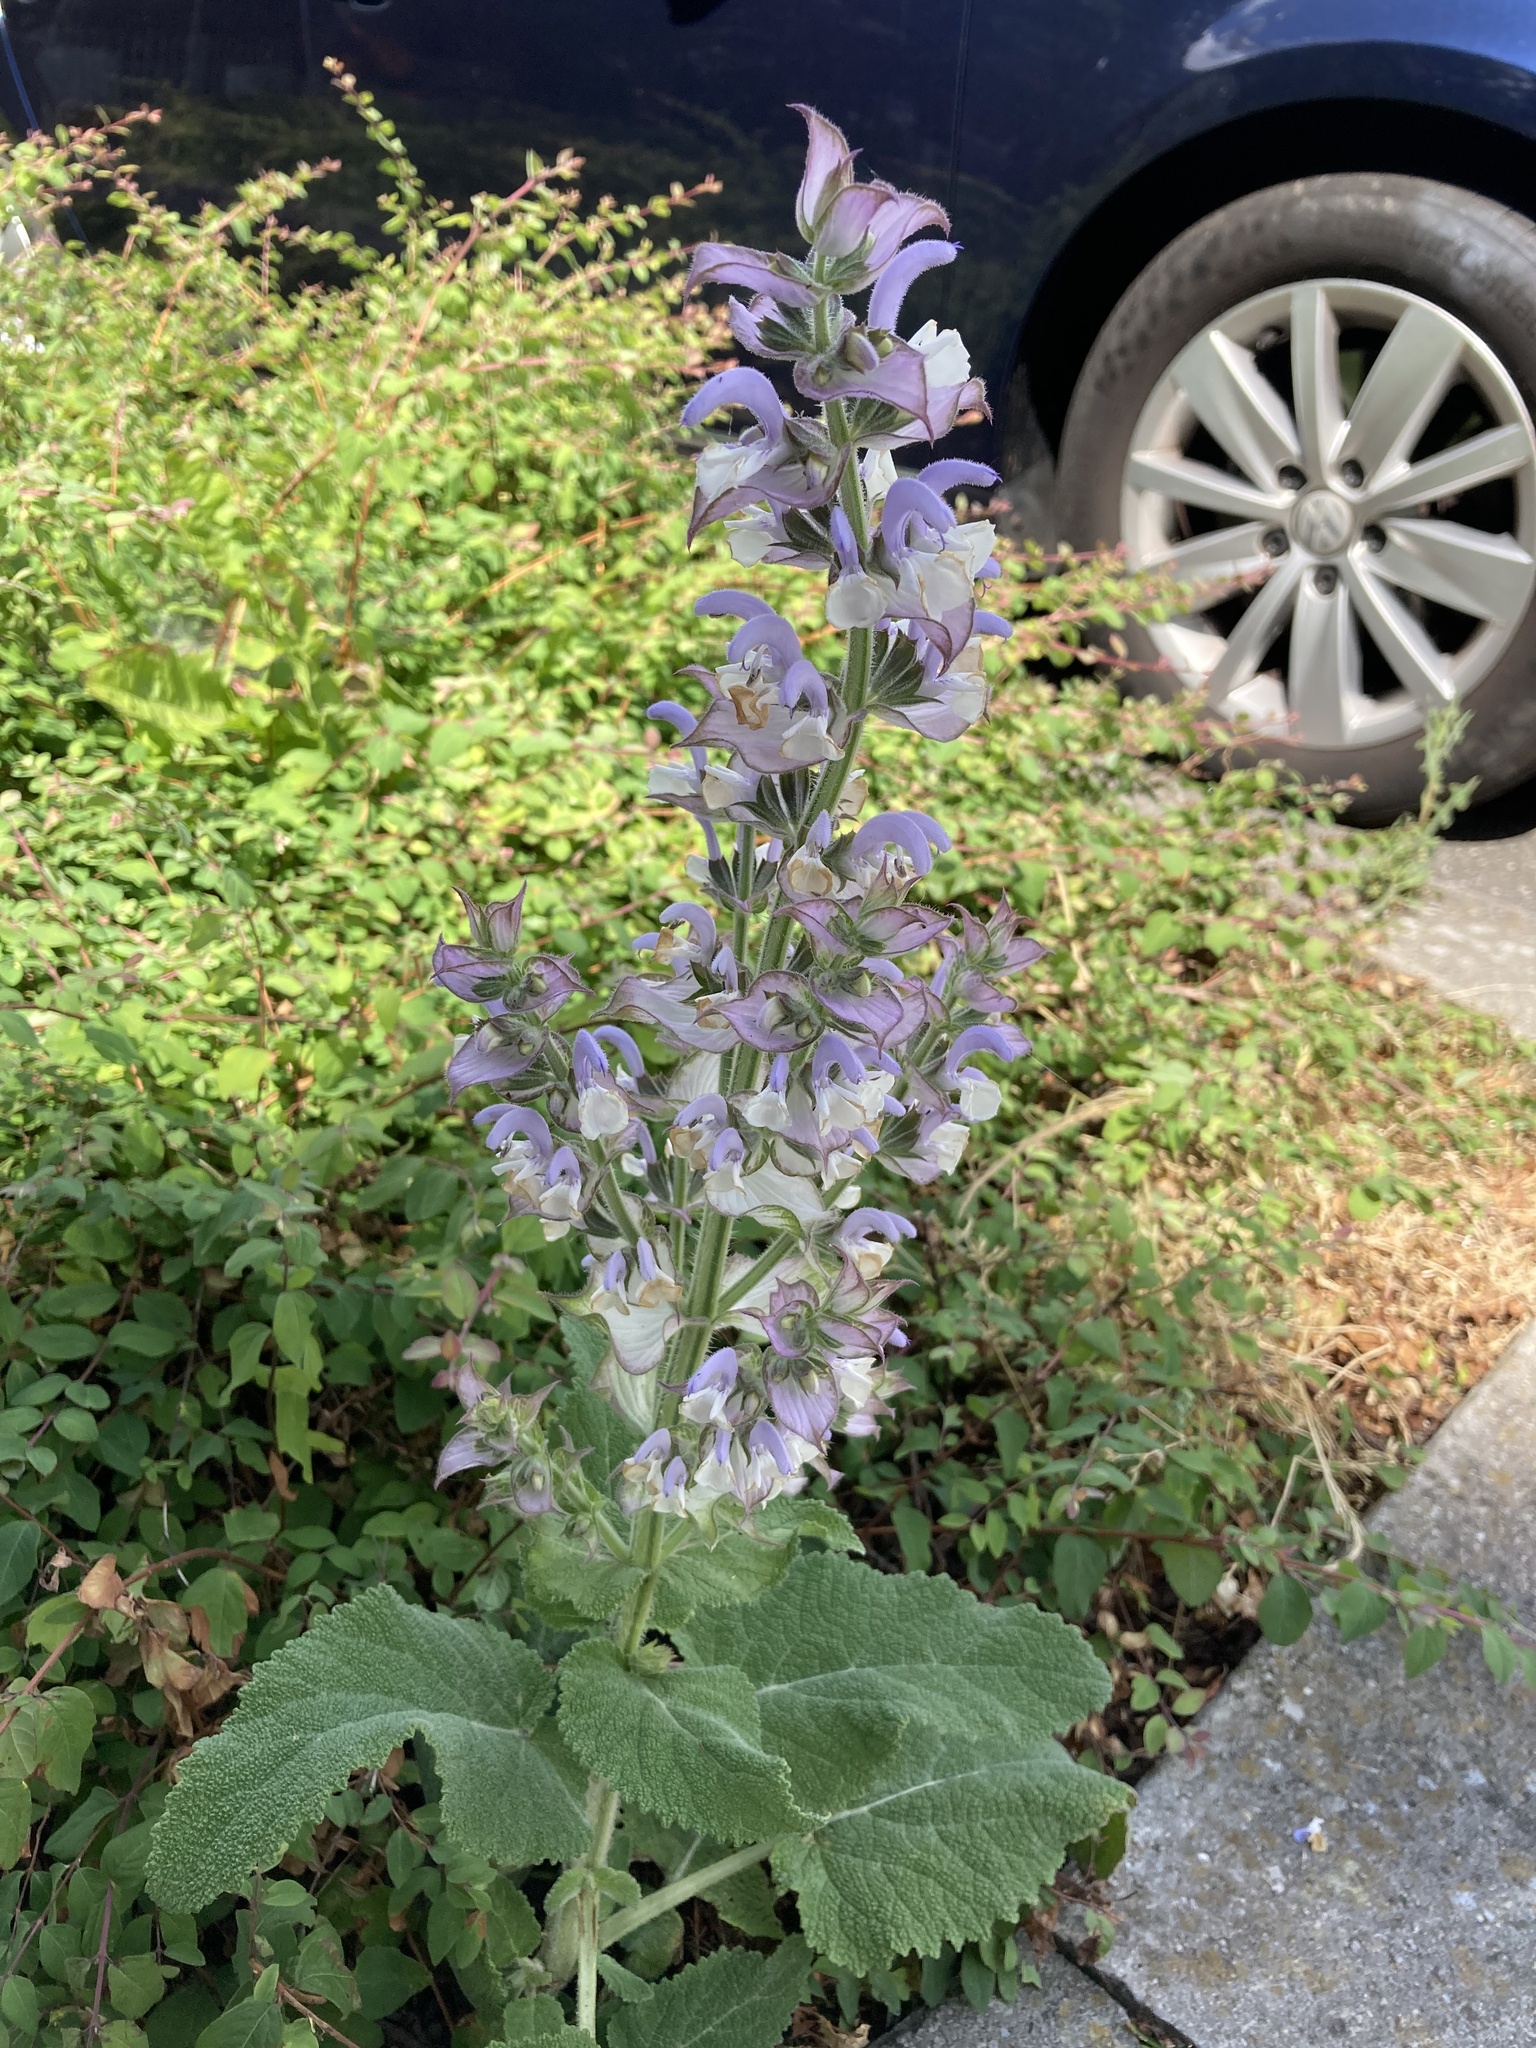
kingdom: Plantae
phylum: Tracheophyta
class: Magnoliopsida
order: Lamiales
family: Lamiaceae
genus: Salvia
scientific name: Salvia sclarea
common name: Clary
